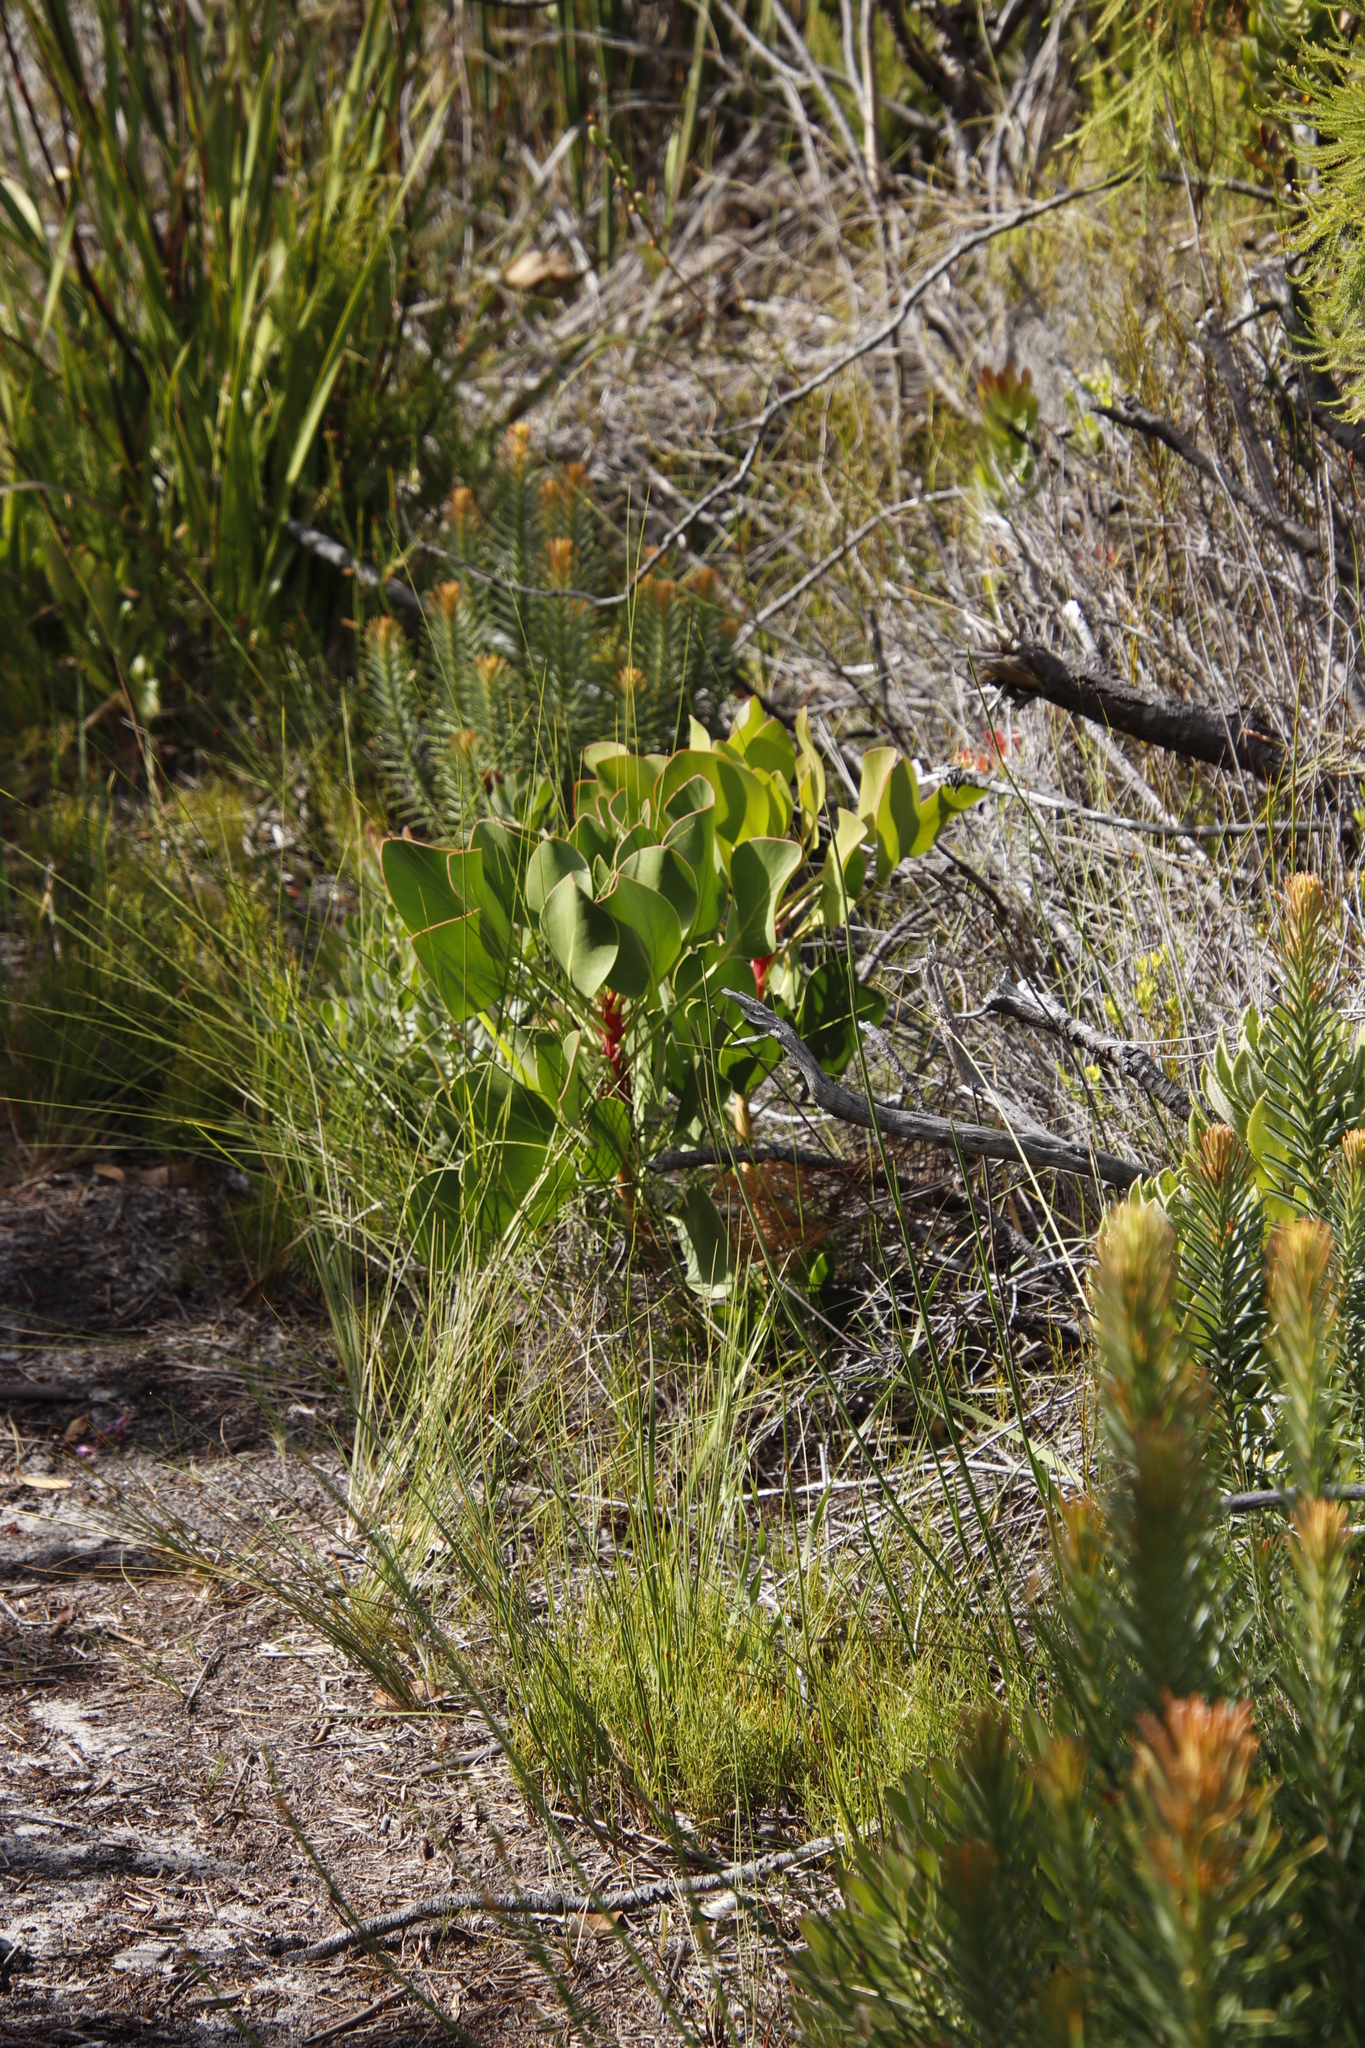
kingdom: Plantae
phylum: Tracheophyta
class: Magnoliopsida
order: Proteales
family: Proteaceae
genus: Protea
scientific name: Protea cynaroides
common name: King protea
